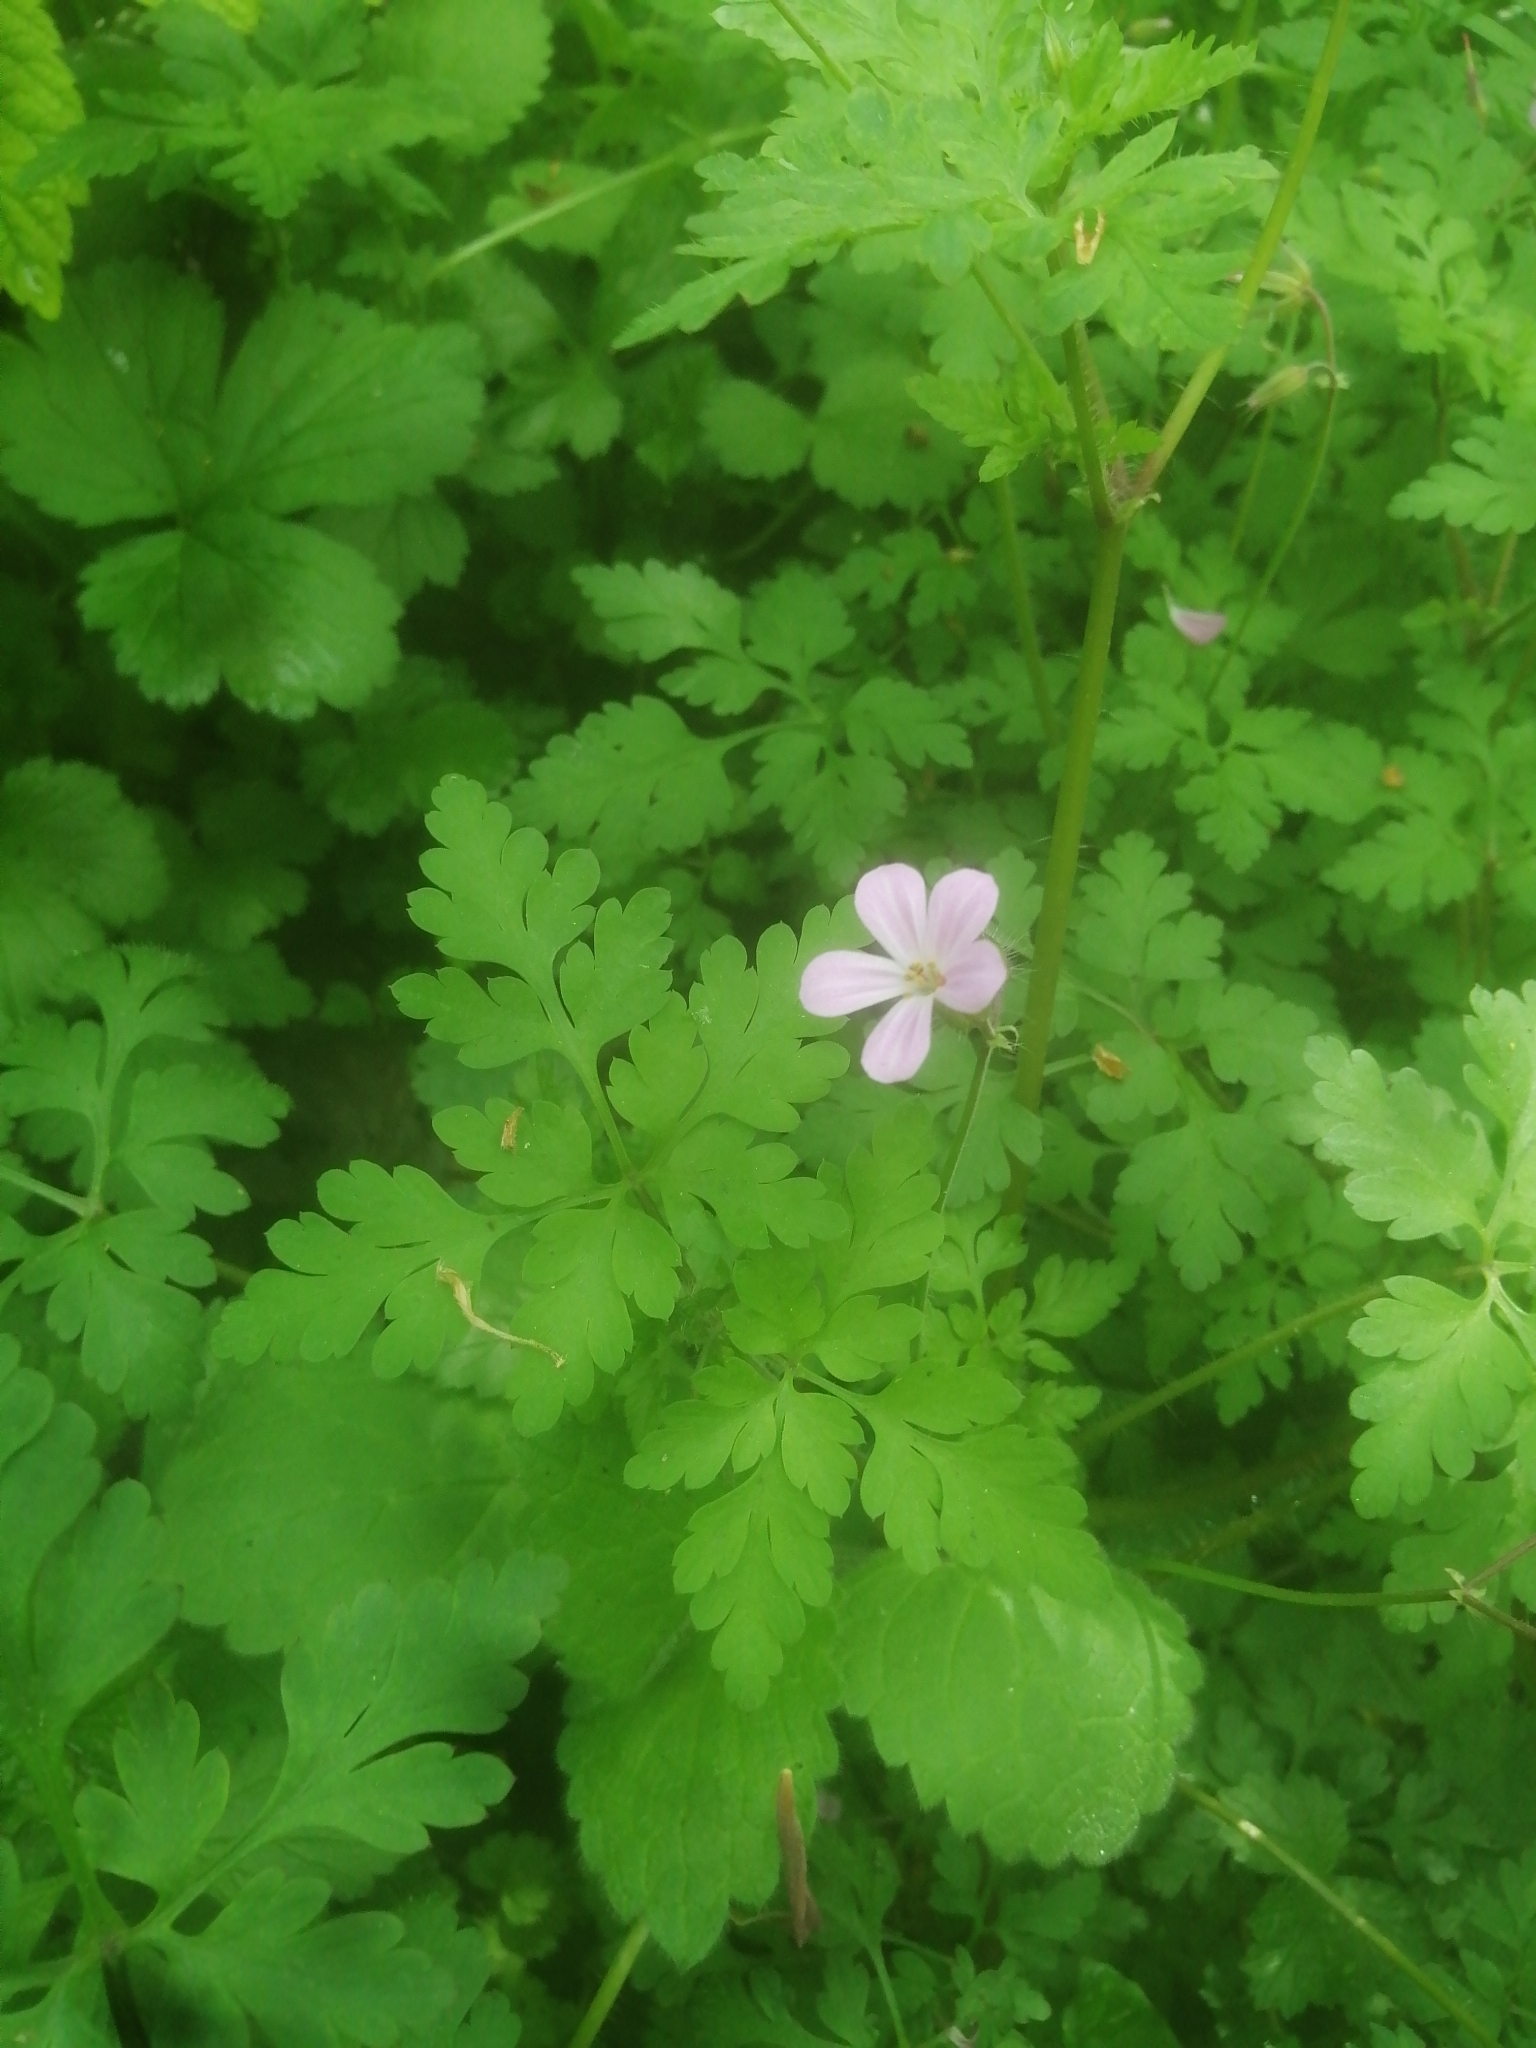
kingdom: Plantae
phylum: Tracheophyta
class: Magnoliopsida
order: Geraniales
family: Geraniaceae
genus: Geranium
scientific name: Geranium robertianum
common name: Herb-robert
